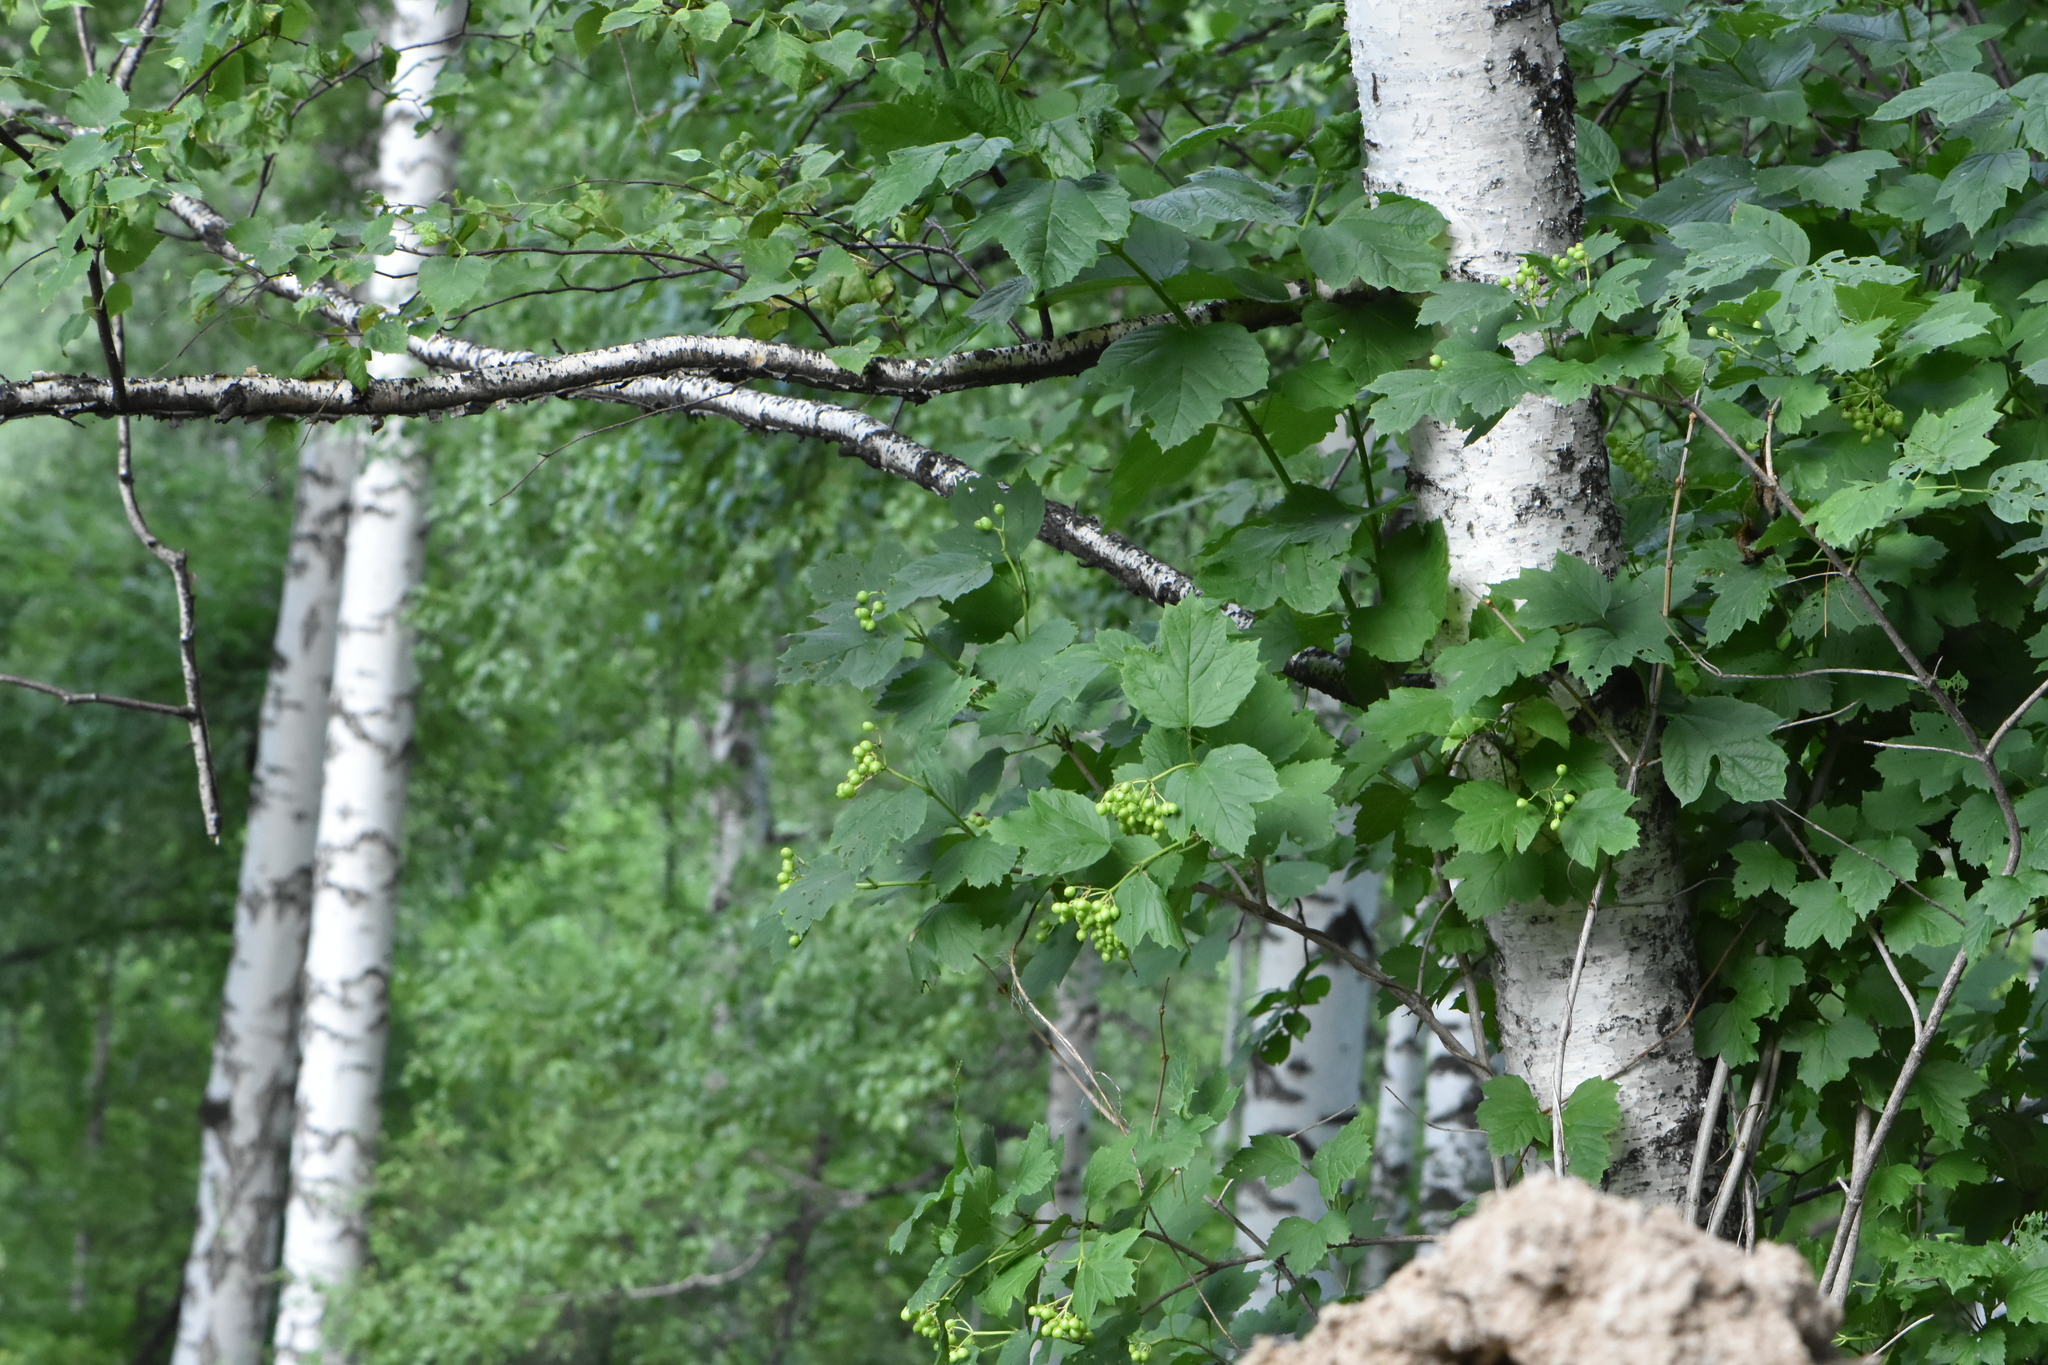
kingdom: Plantae
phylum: Tracheophyta
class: Magnoliopsida
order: Dipsacales
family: Viburnaceae
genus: Viburnum
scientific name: Viburnum opulus
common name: Guelder-rose
